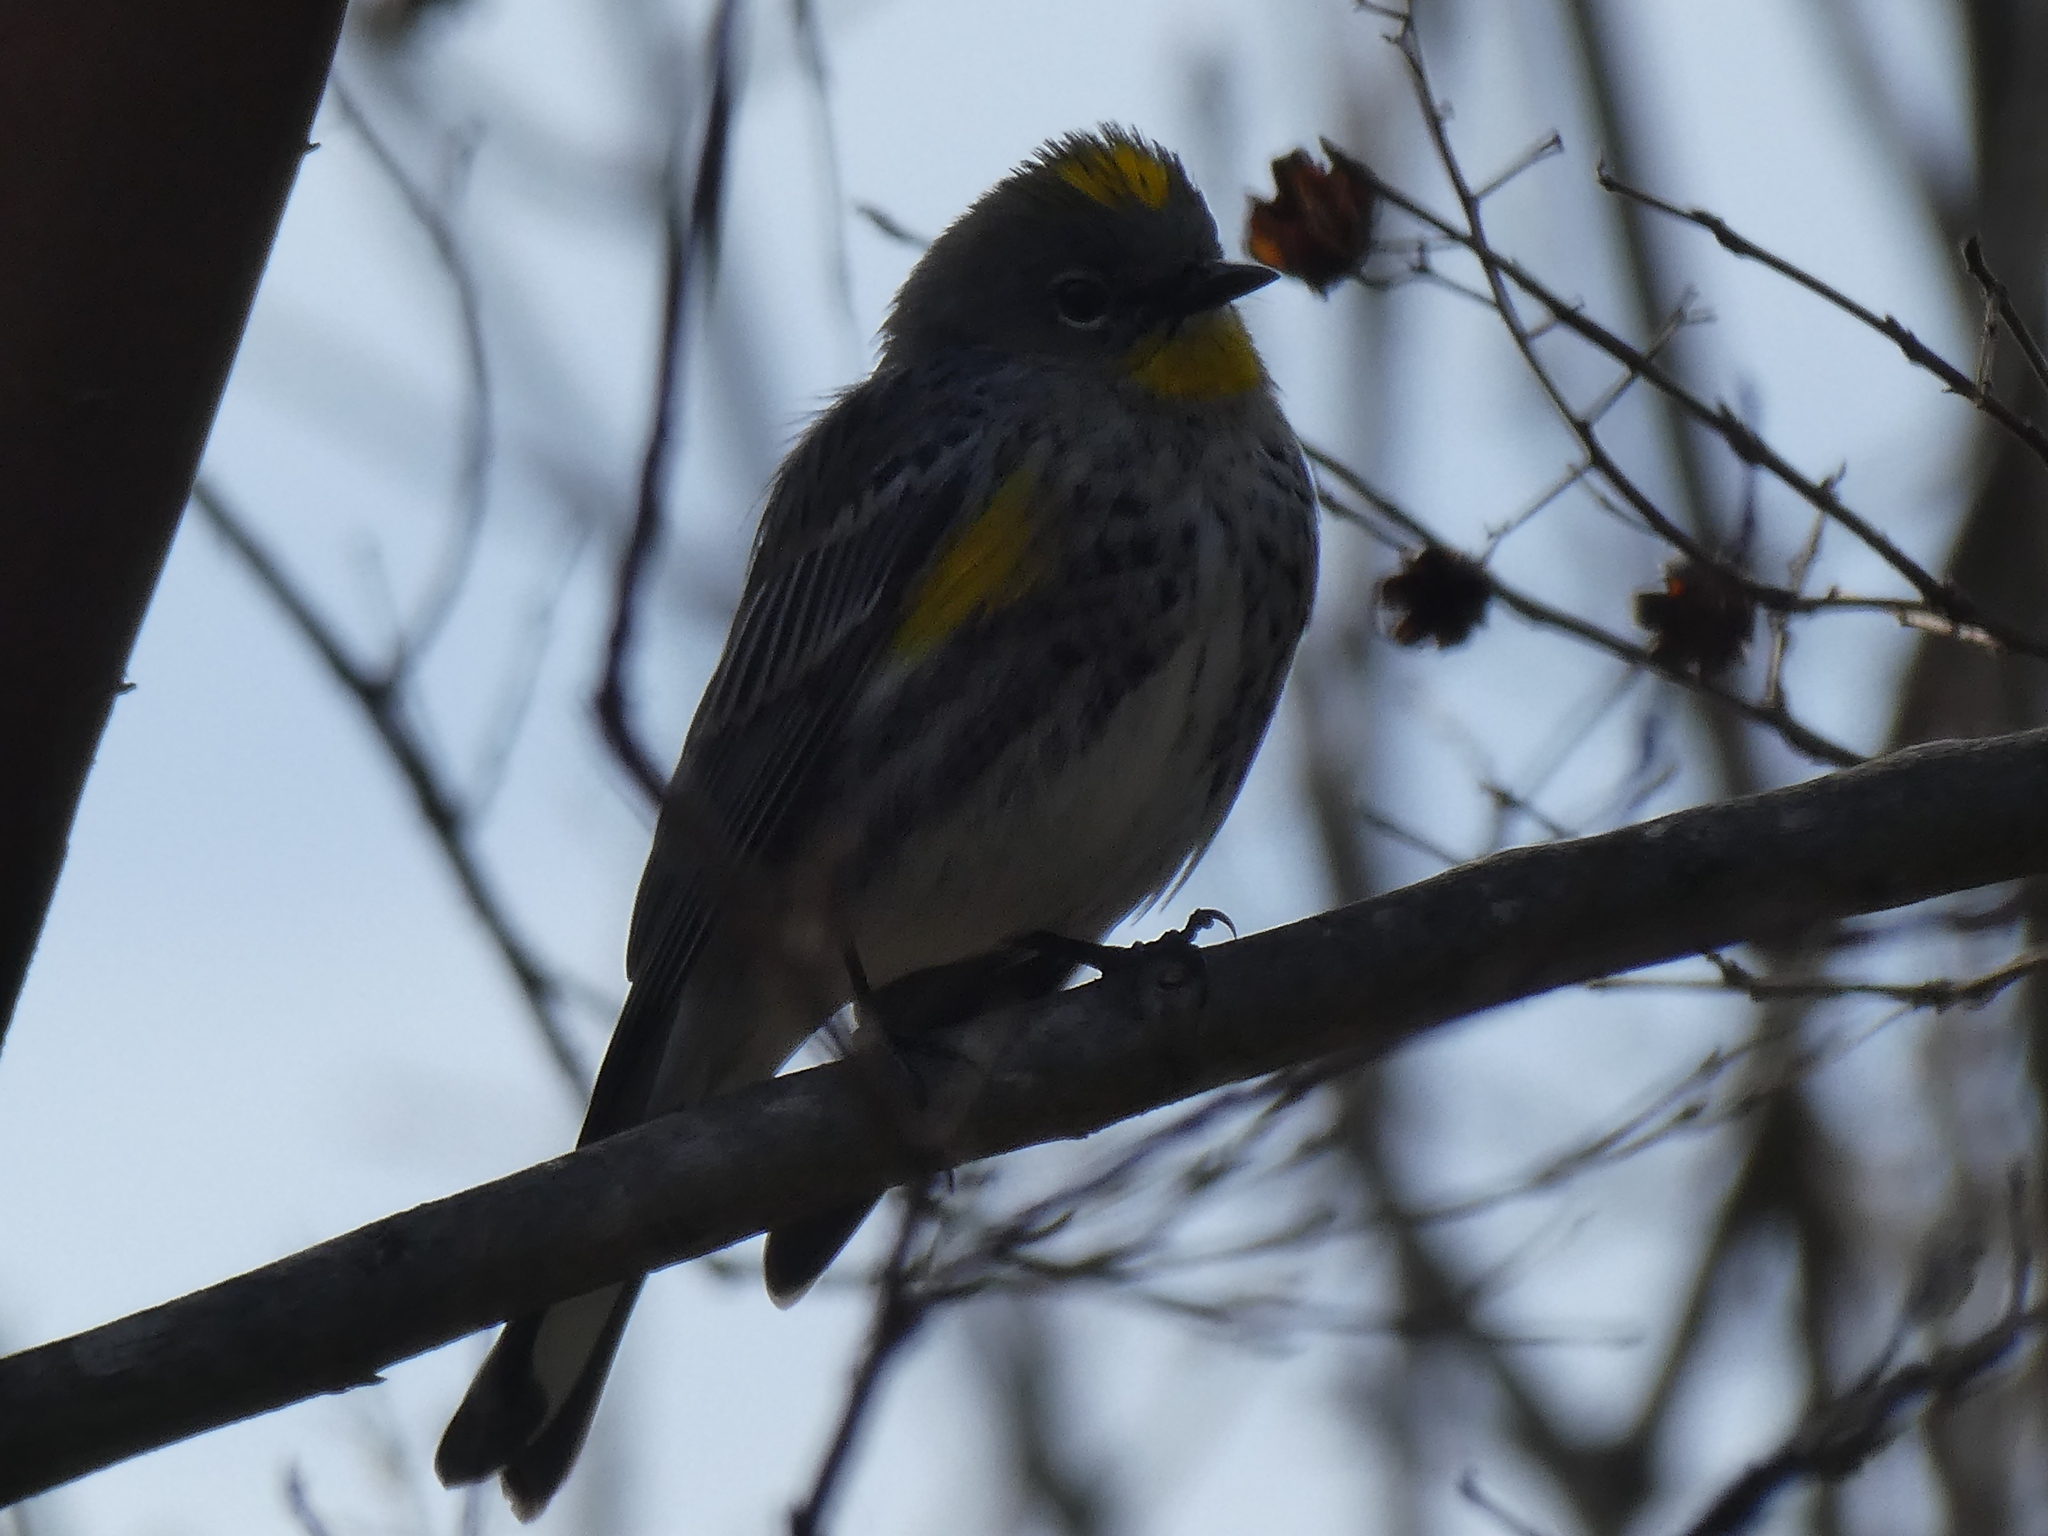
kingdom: Animalia
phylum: Chordata
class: Aves
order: Passeriformes
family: Parulidae
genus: Setophaga
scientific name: Setophaga coronata
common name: Myrtle warbler
